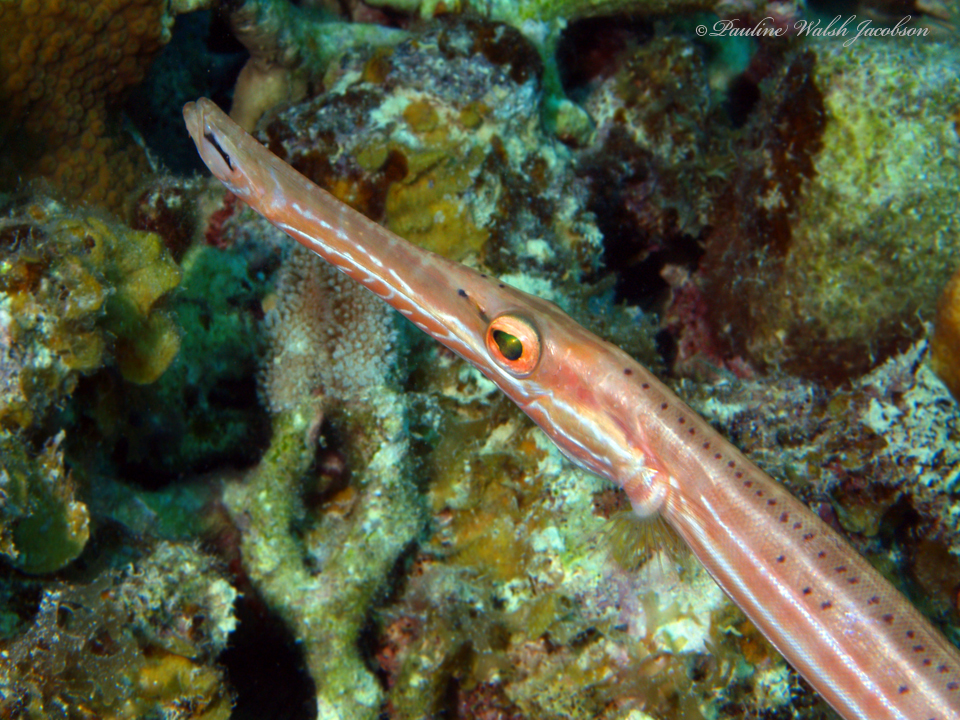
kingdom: Animalia
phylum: Chordata
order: Syngnathiformes
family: Aulostomidae
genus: Aulostomus
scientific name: Aulostomus maculatus
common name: West atlantic trumpetfish
